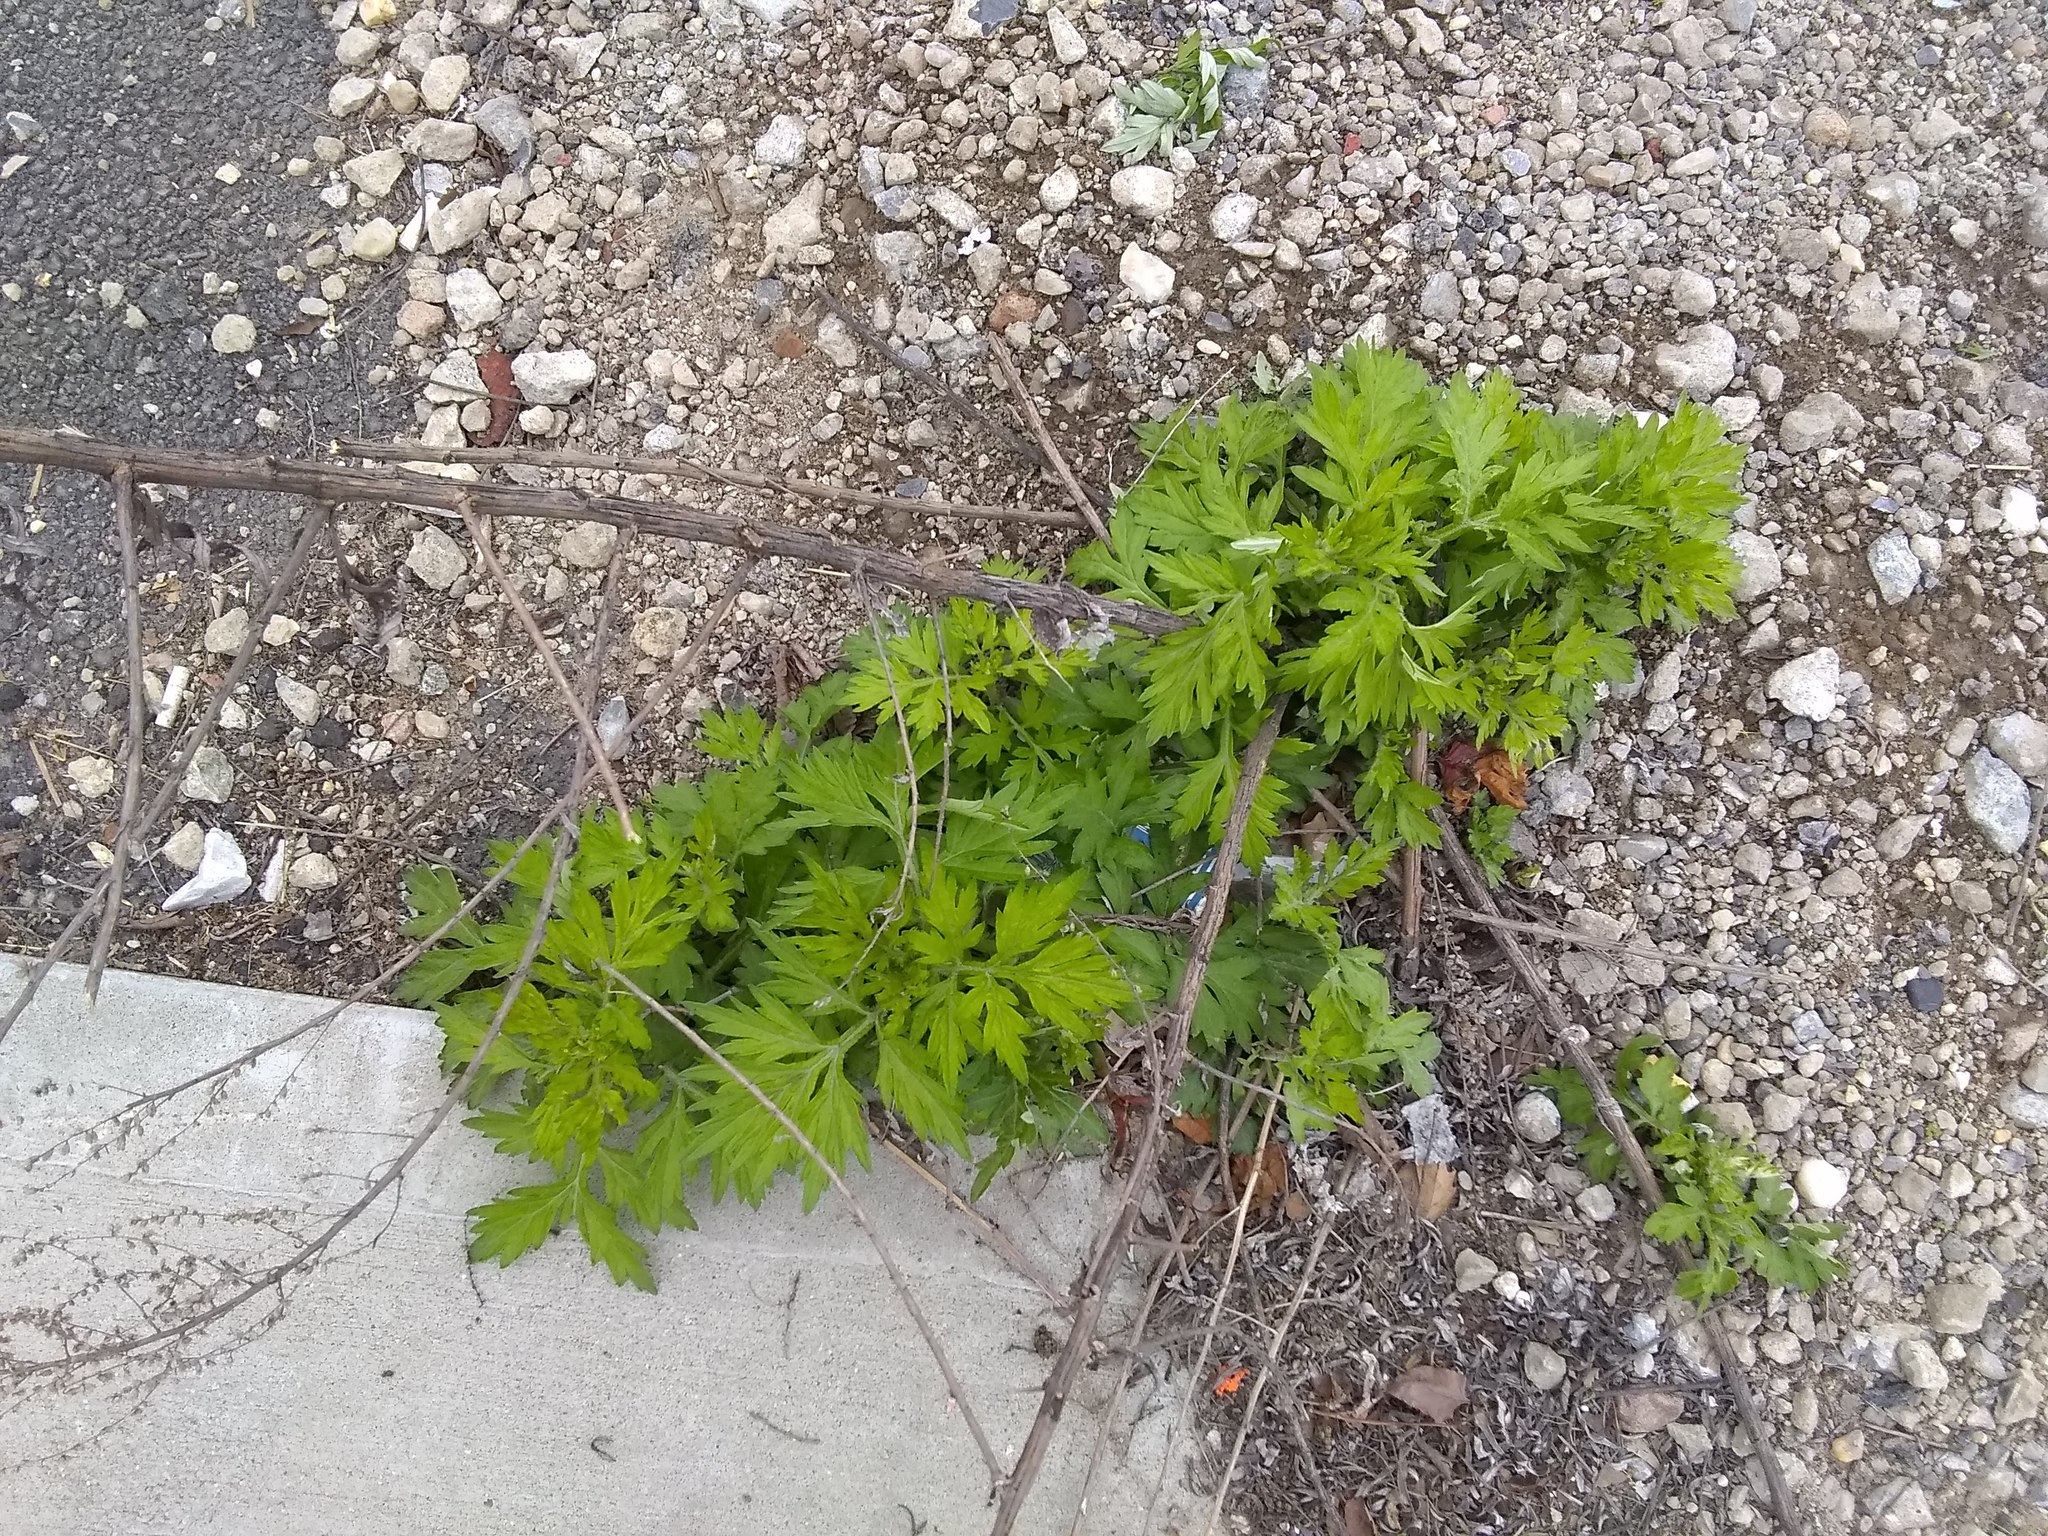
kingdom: Plantae
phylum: Tracheophyta
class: Magnoliopsida
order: Asterales
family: Asteraceae
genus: Artemisia
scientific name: Artemisia vulgaris
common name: Mugwort
